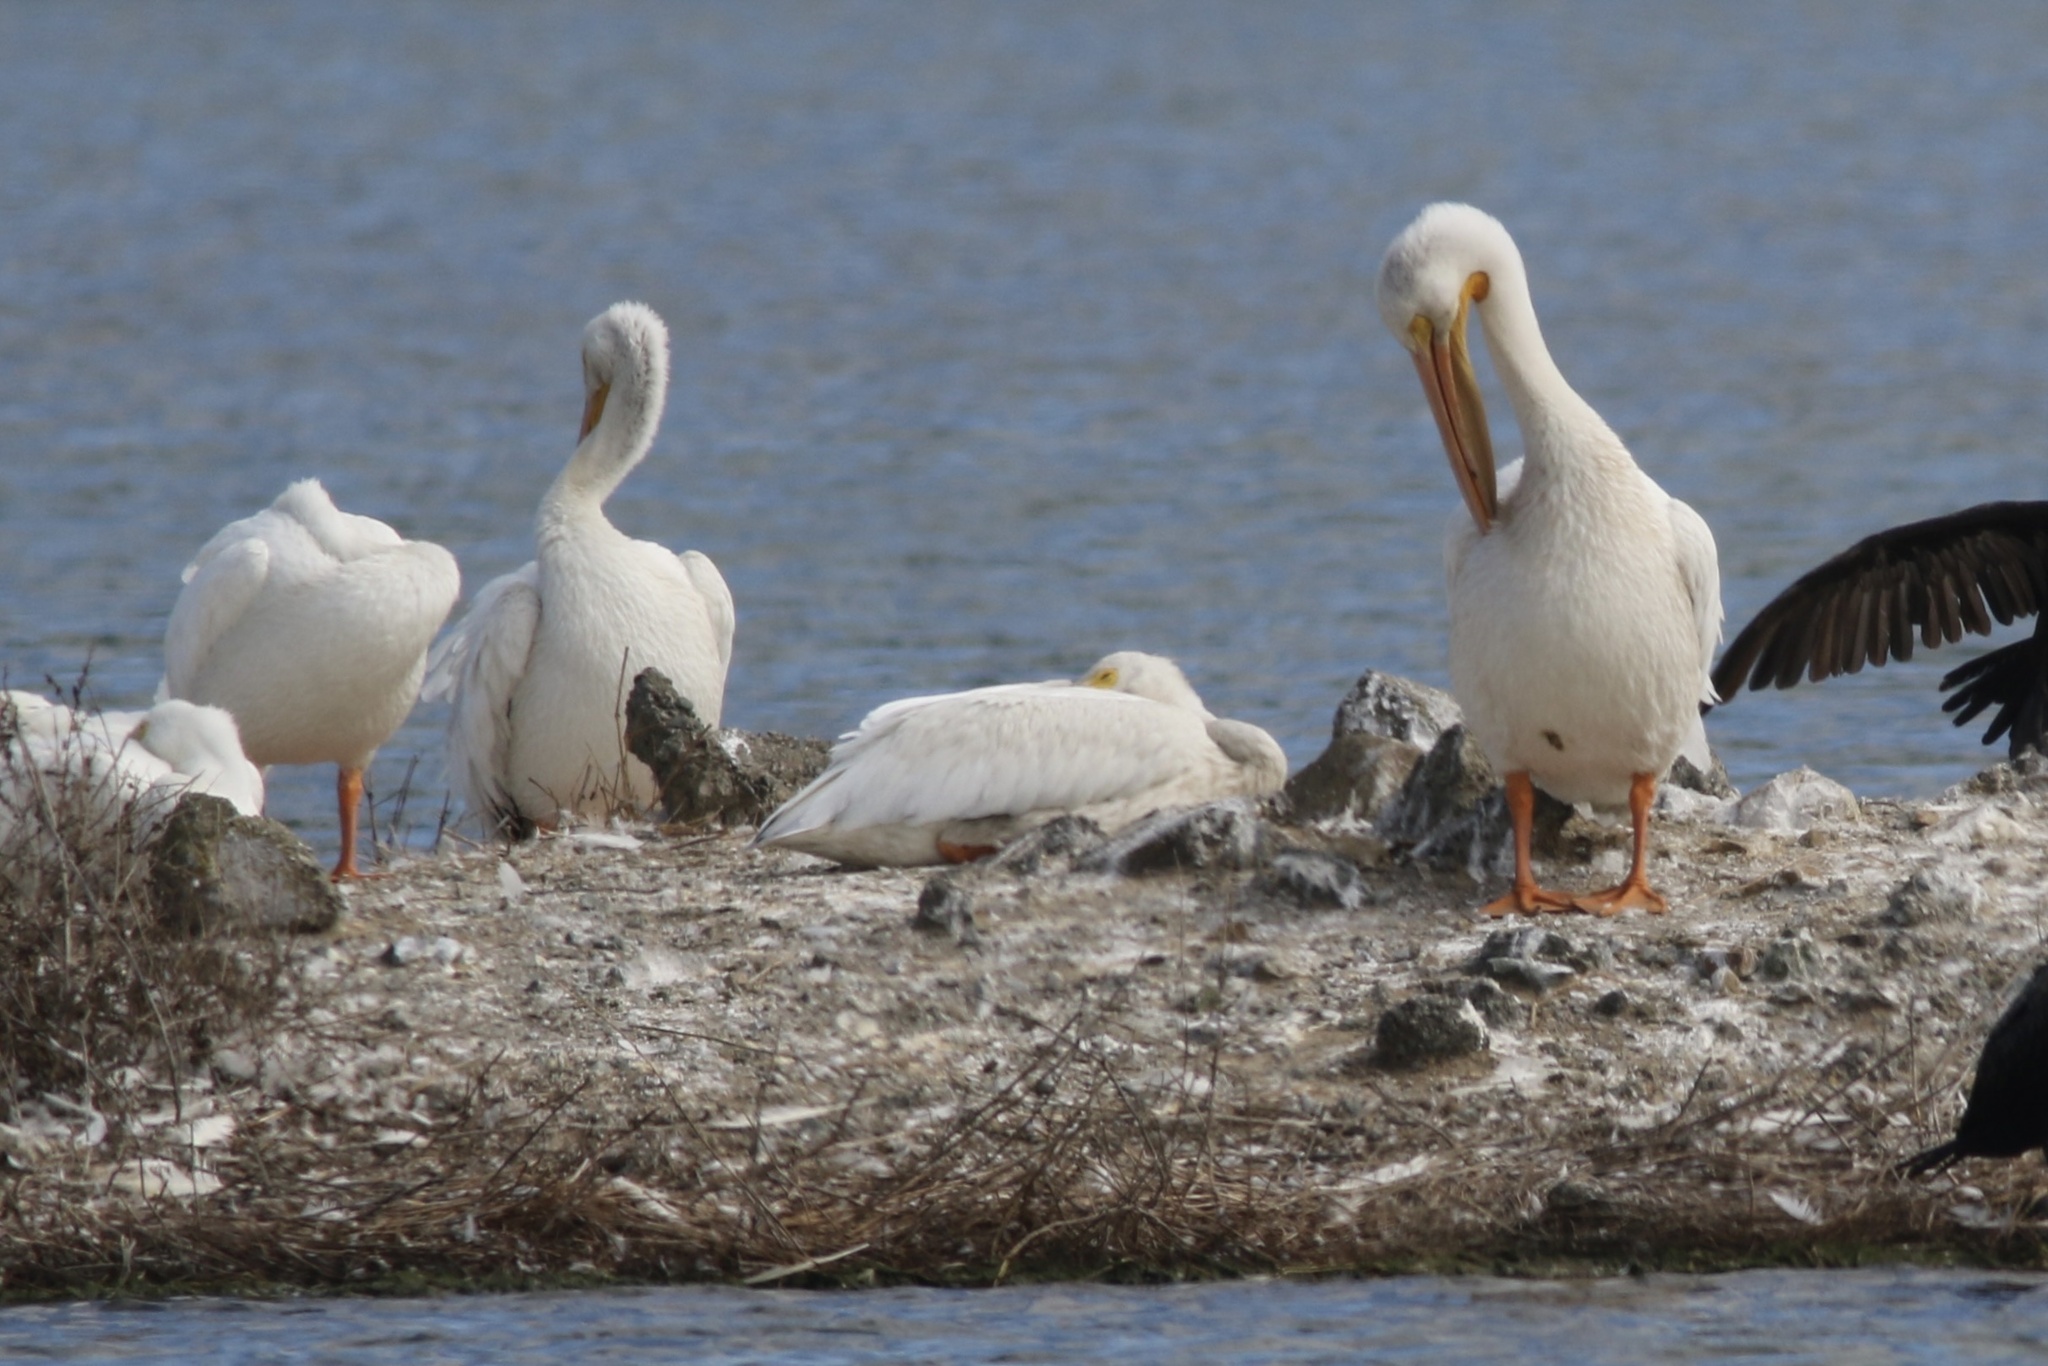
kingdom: Animalia
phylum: Chordata
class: Aves
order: Pelecaniformes
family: Pelecanidae
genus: Pelecanus
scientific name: Pelecanus erythrorhynchos
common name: American white pelican
